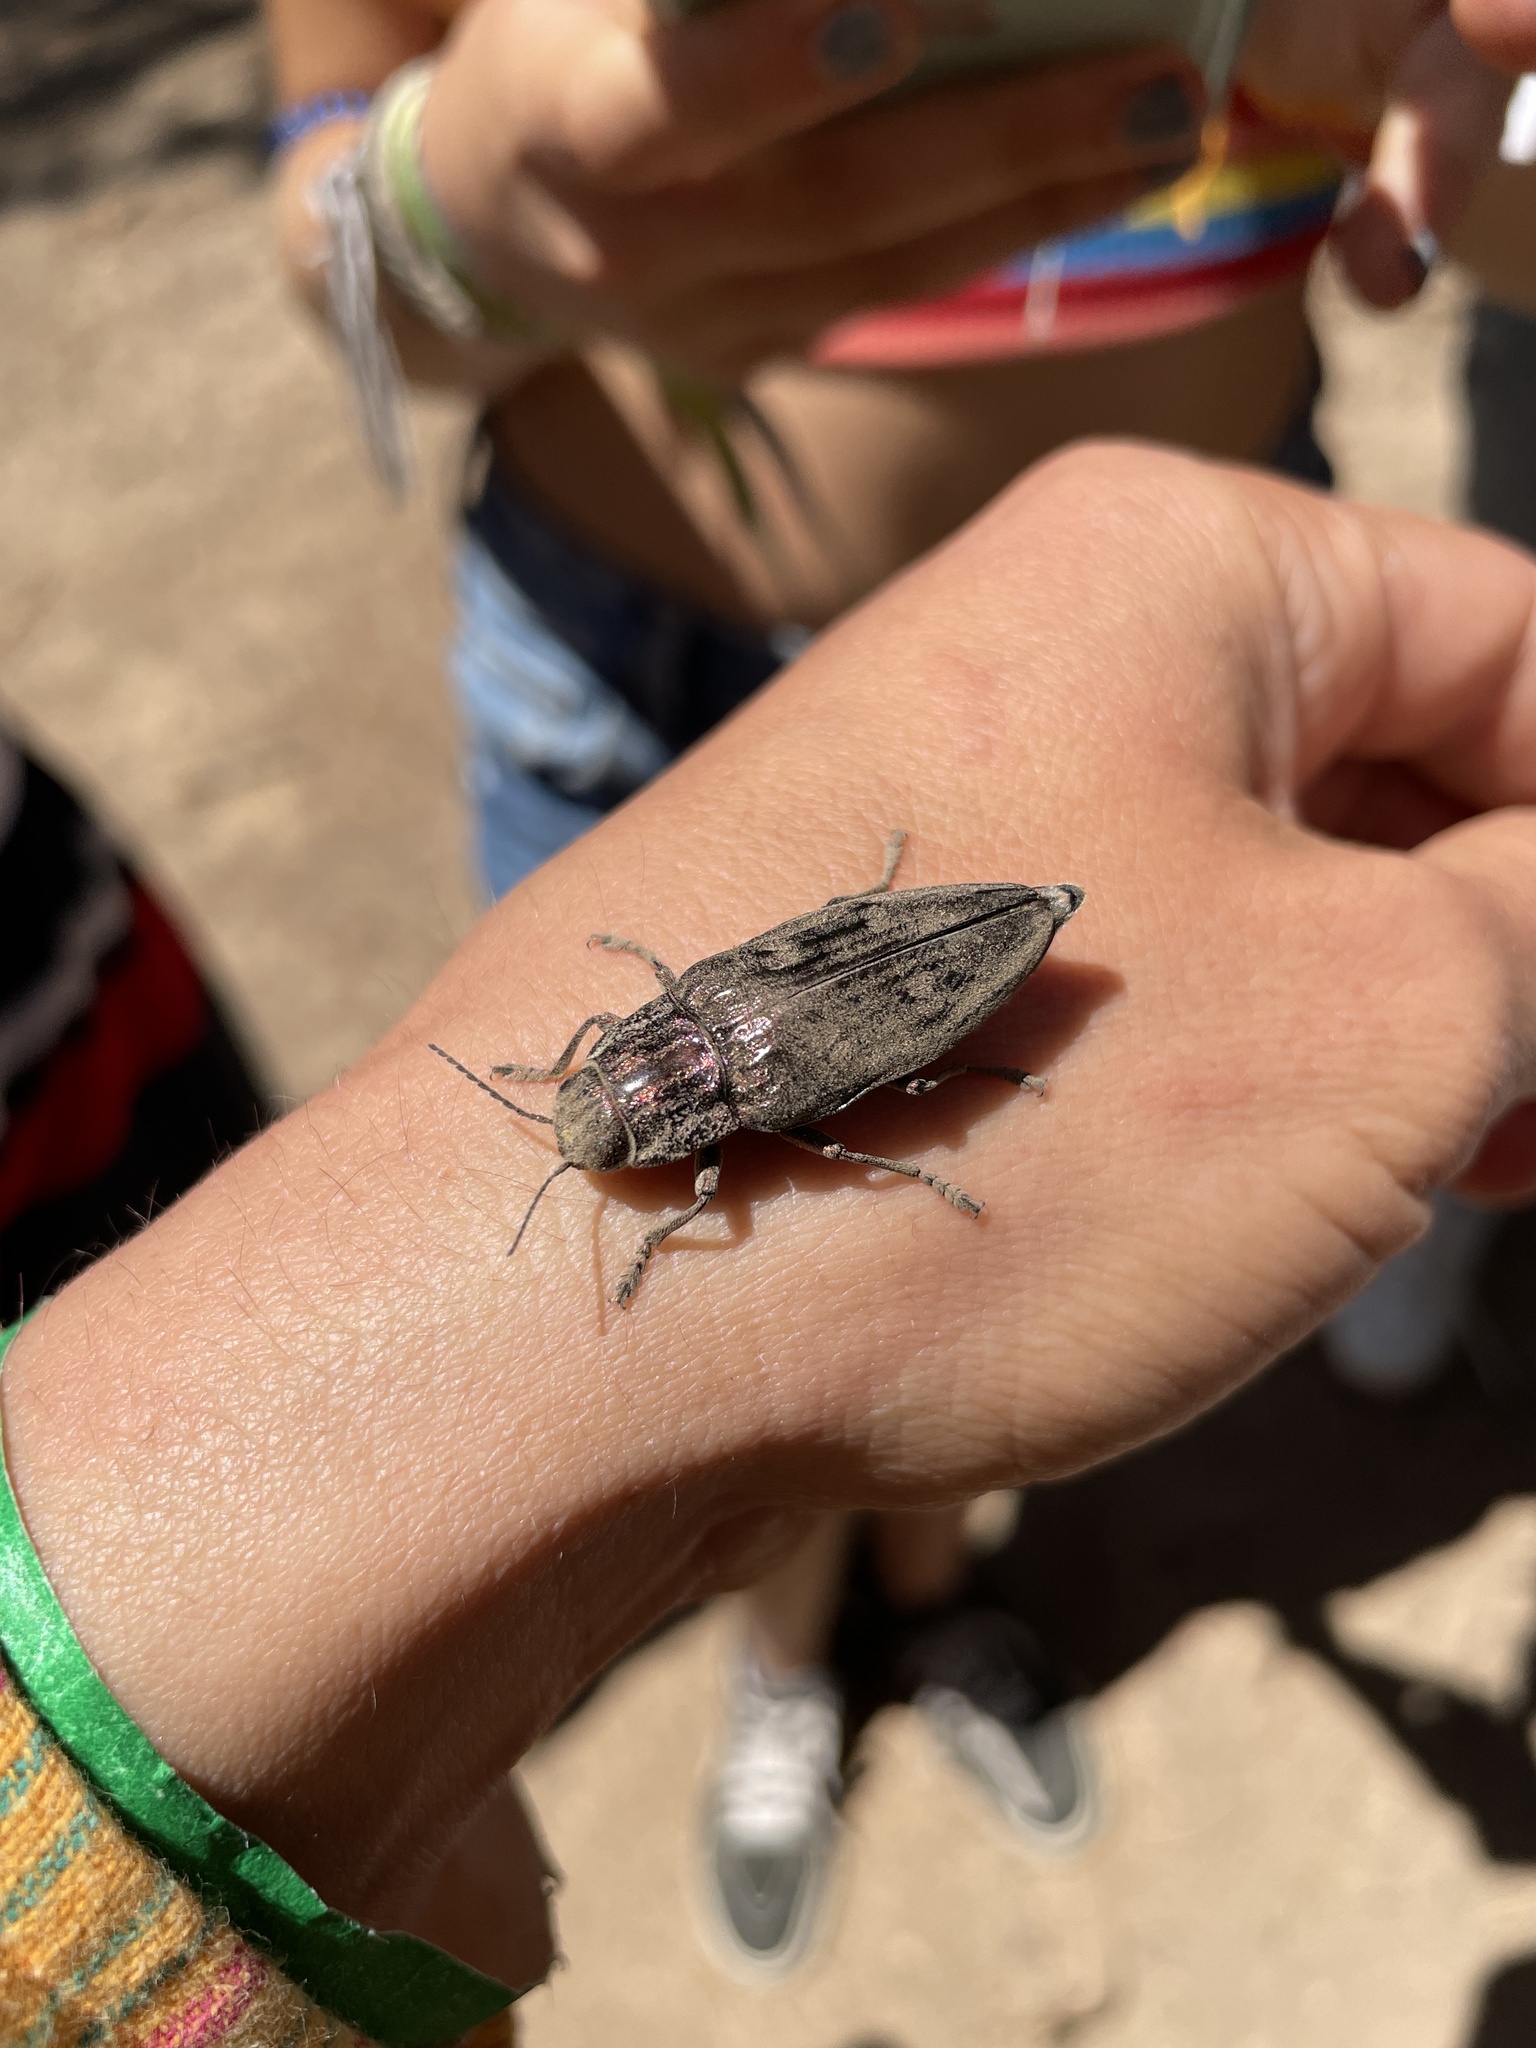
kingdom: Animalia
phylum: Arthropoda
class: Insecta
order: Coleoptera
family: Buprestidae
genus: Chalcophora
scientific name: Chalcophora massiliensis
